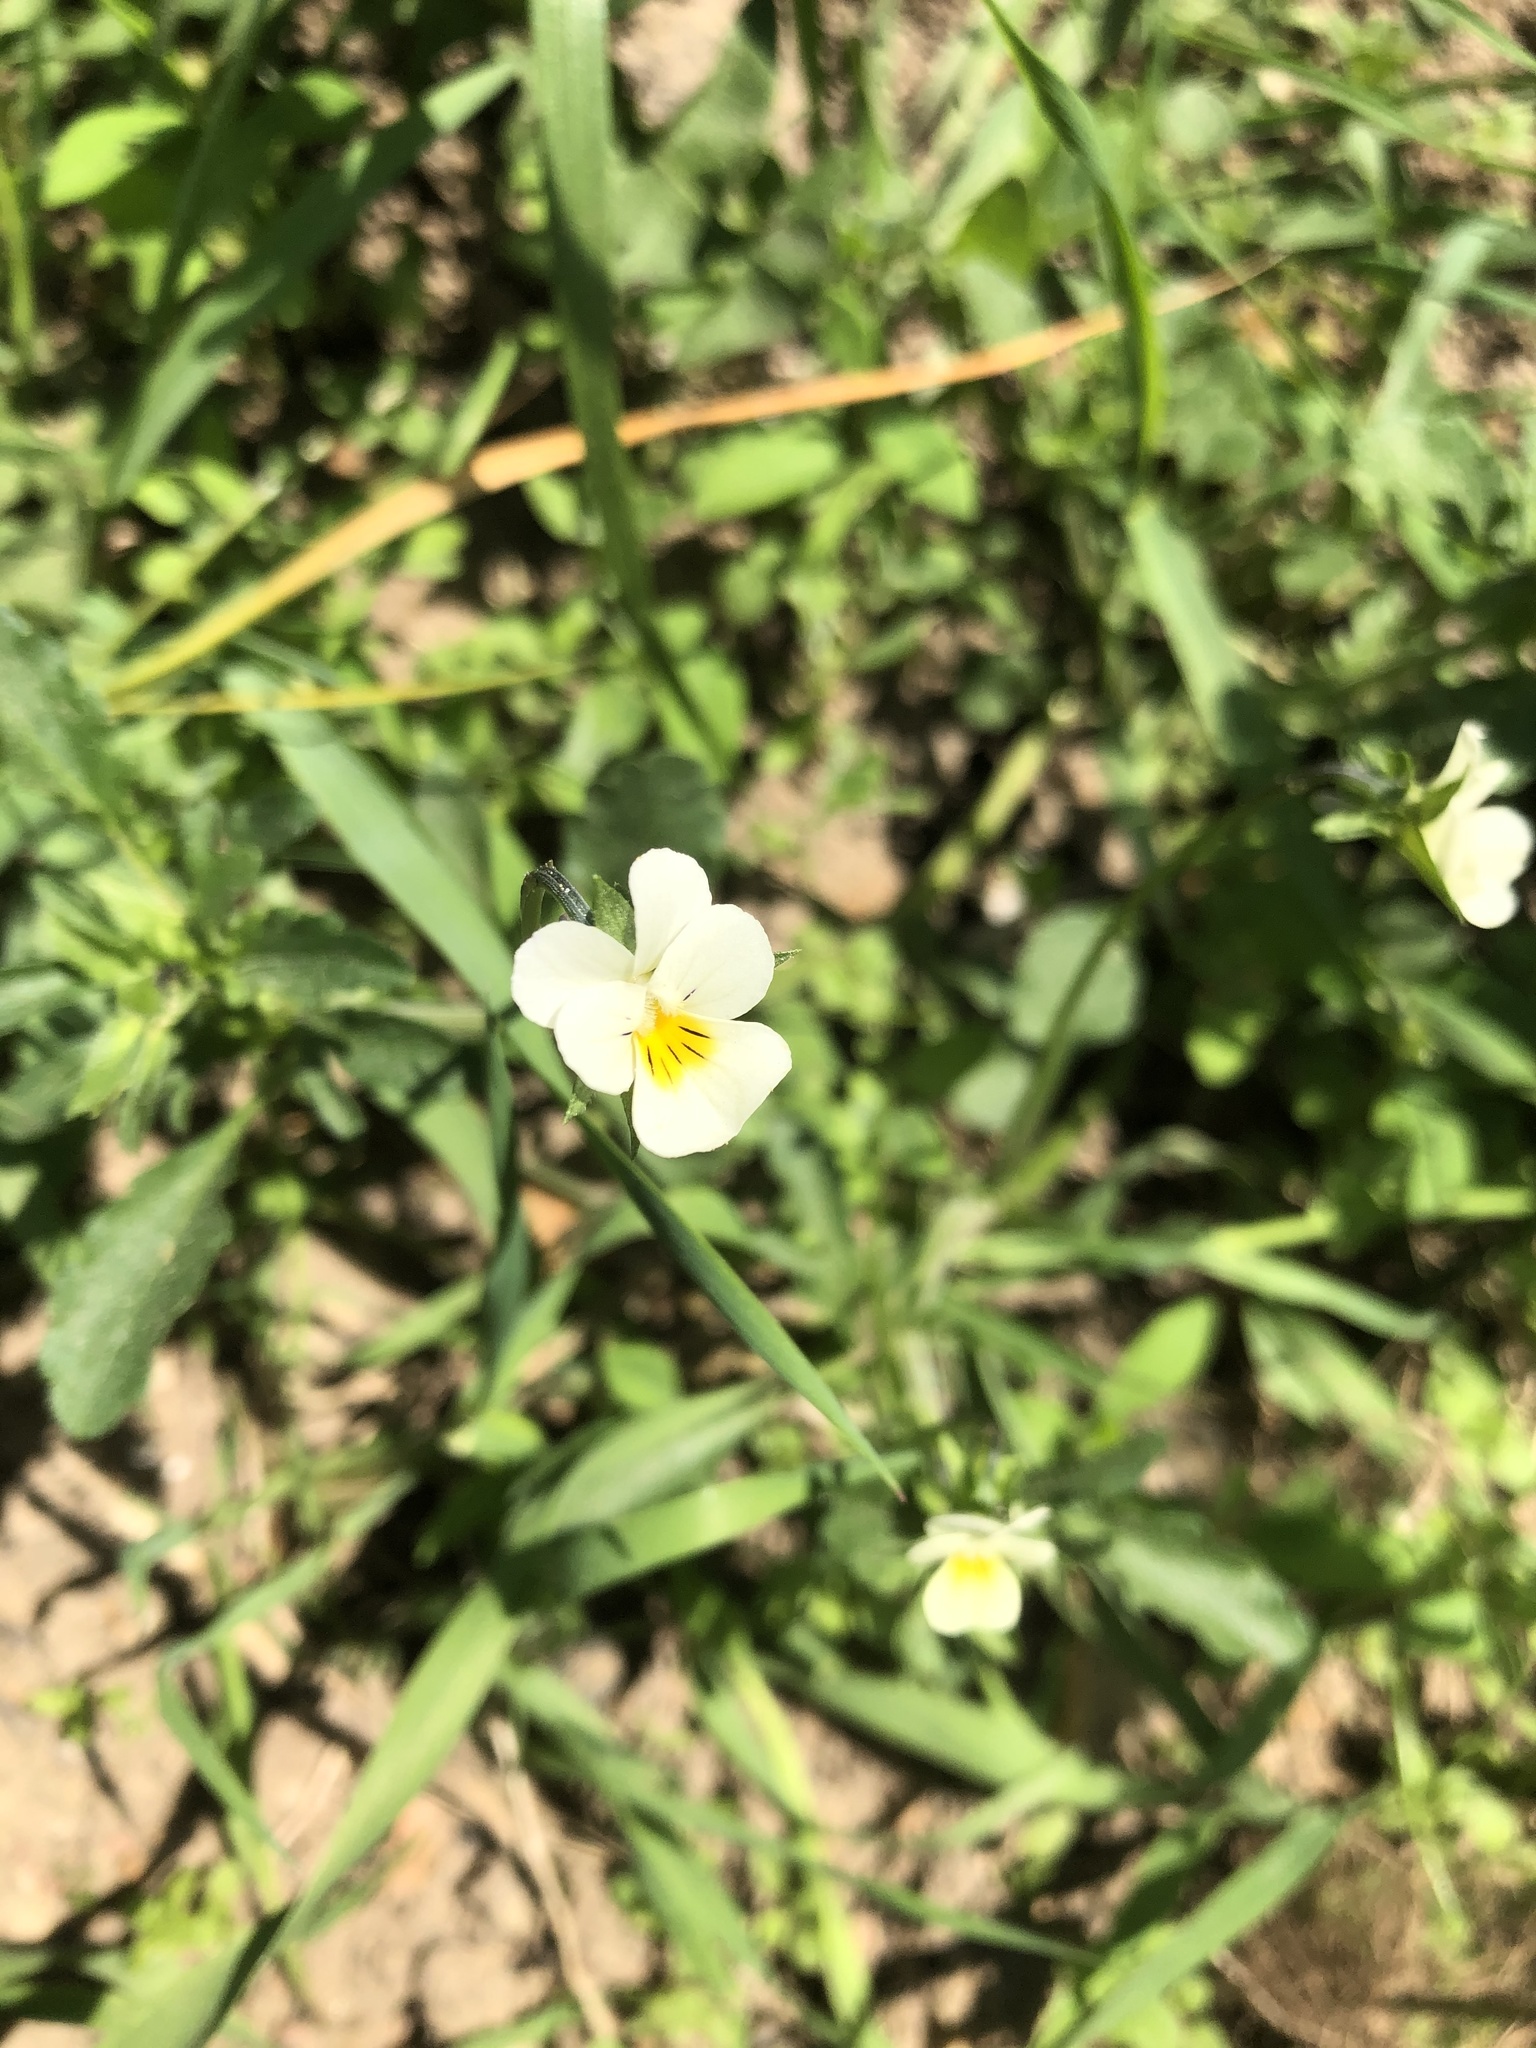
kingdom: Plantae
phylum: Tracheophyta
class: Magnoliopsida
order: Malpighiales
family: Violaceae
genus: Viola
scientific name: Viola arvensis
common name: Field pansy
